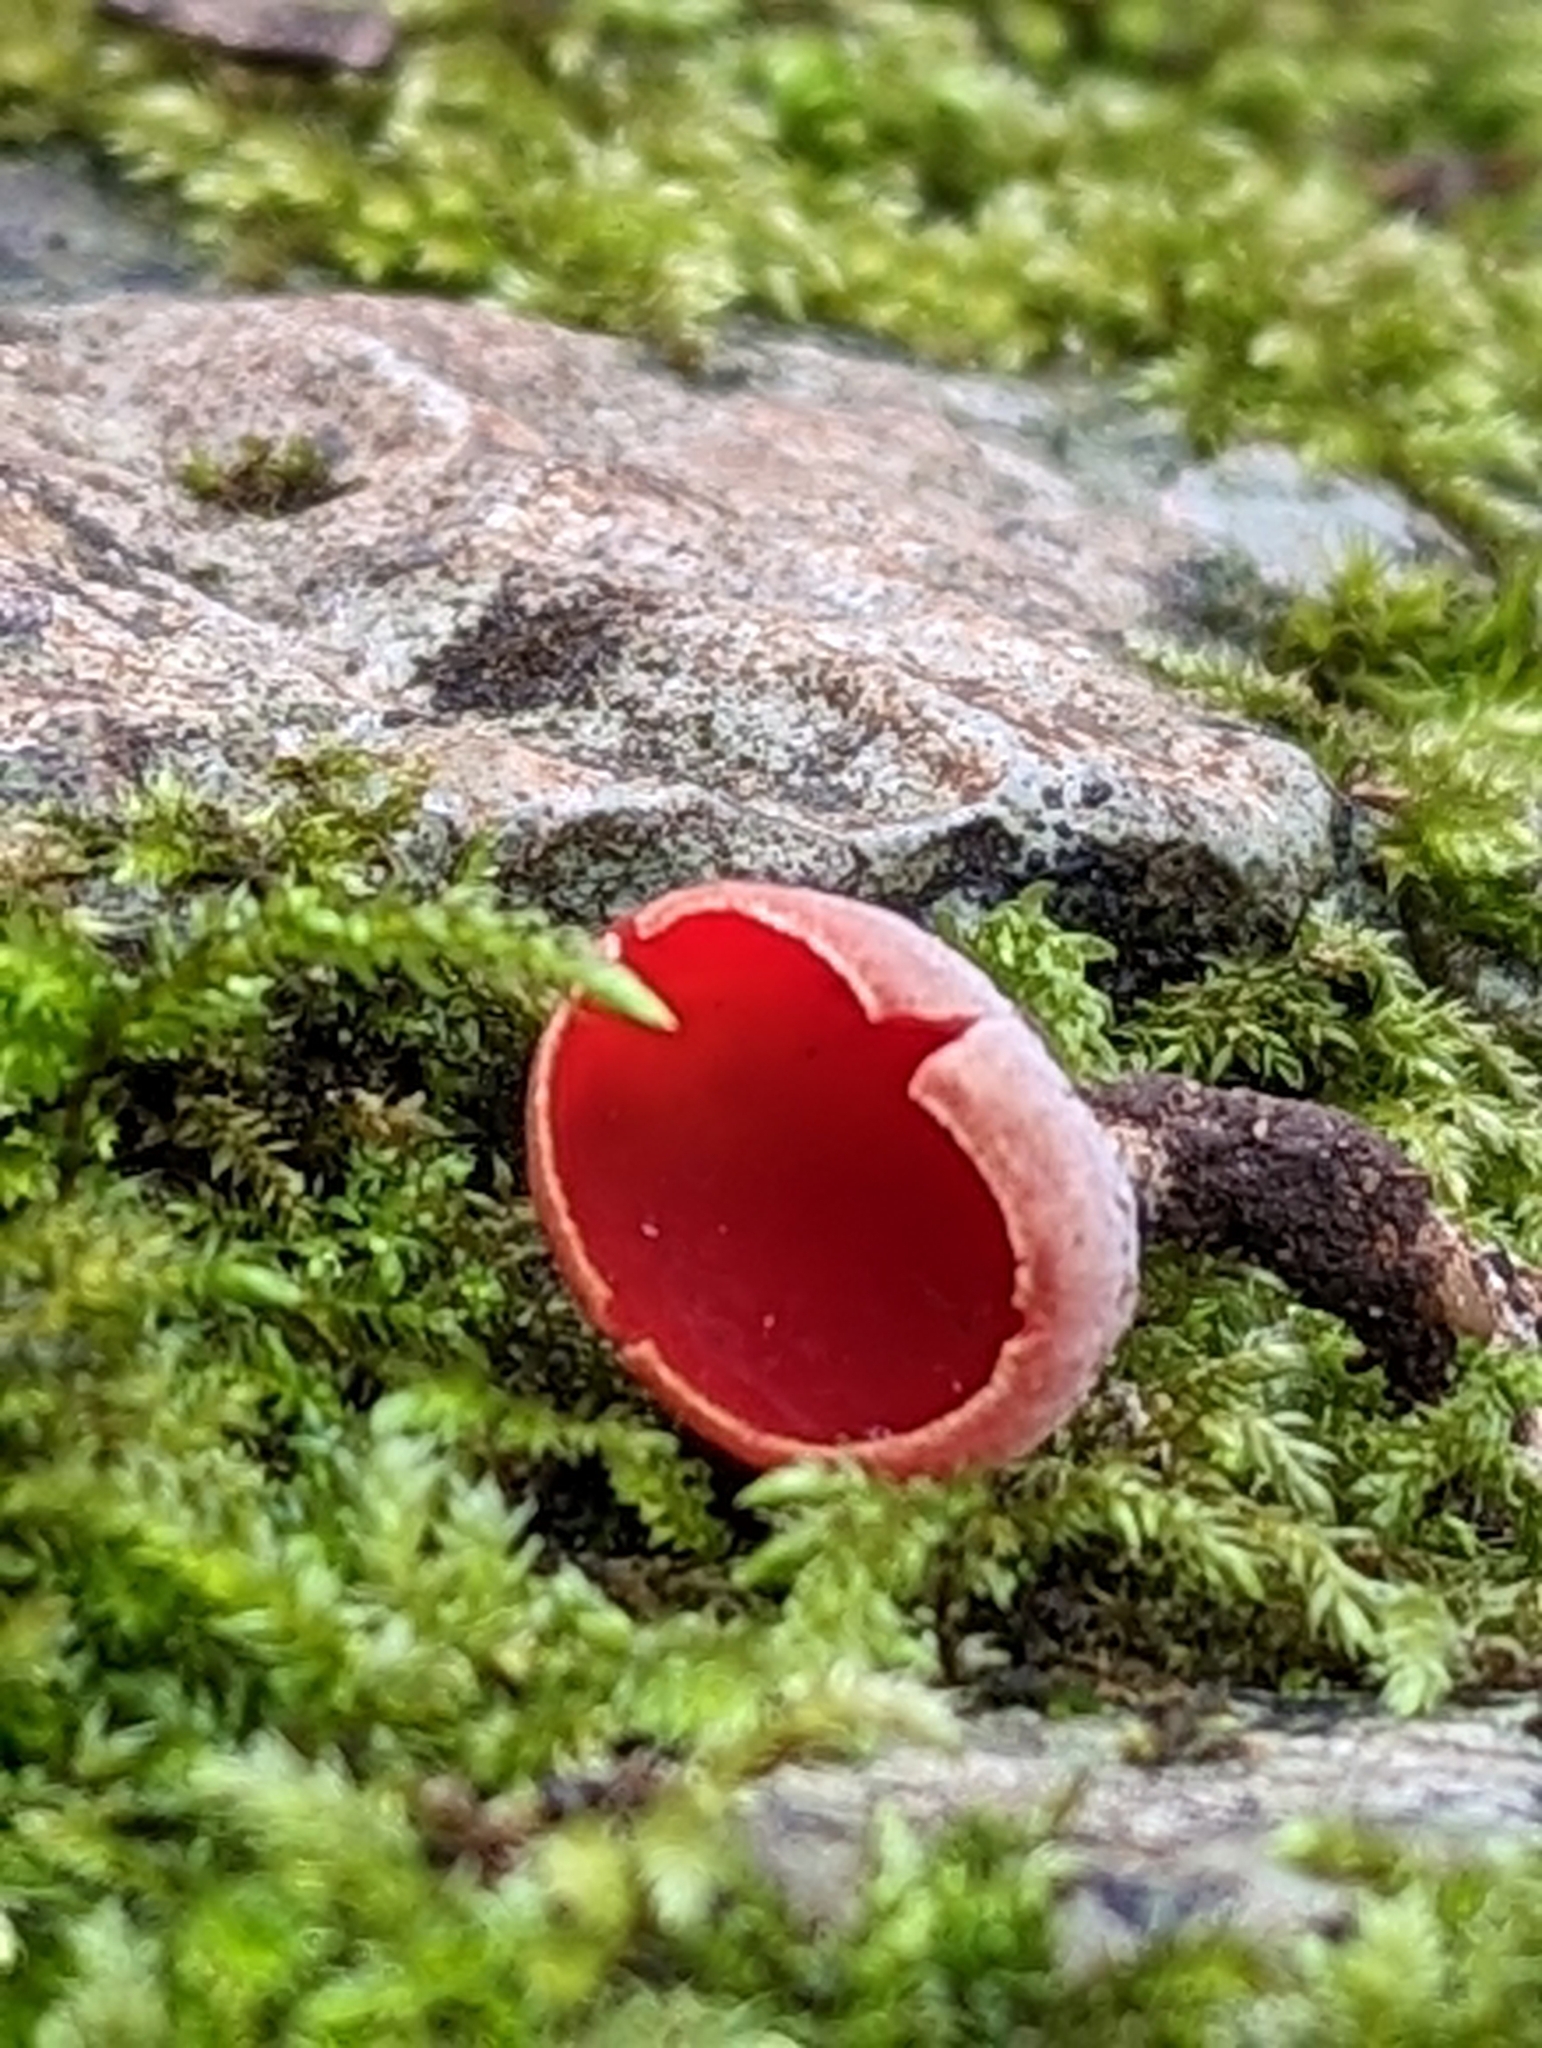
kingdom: Fungi
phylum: Ascomycota
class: Pezizomycetes
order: Pezizales
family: Sarcoscyphaceae
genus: Sarcoscypha
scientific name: Sarcoscypha
